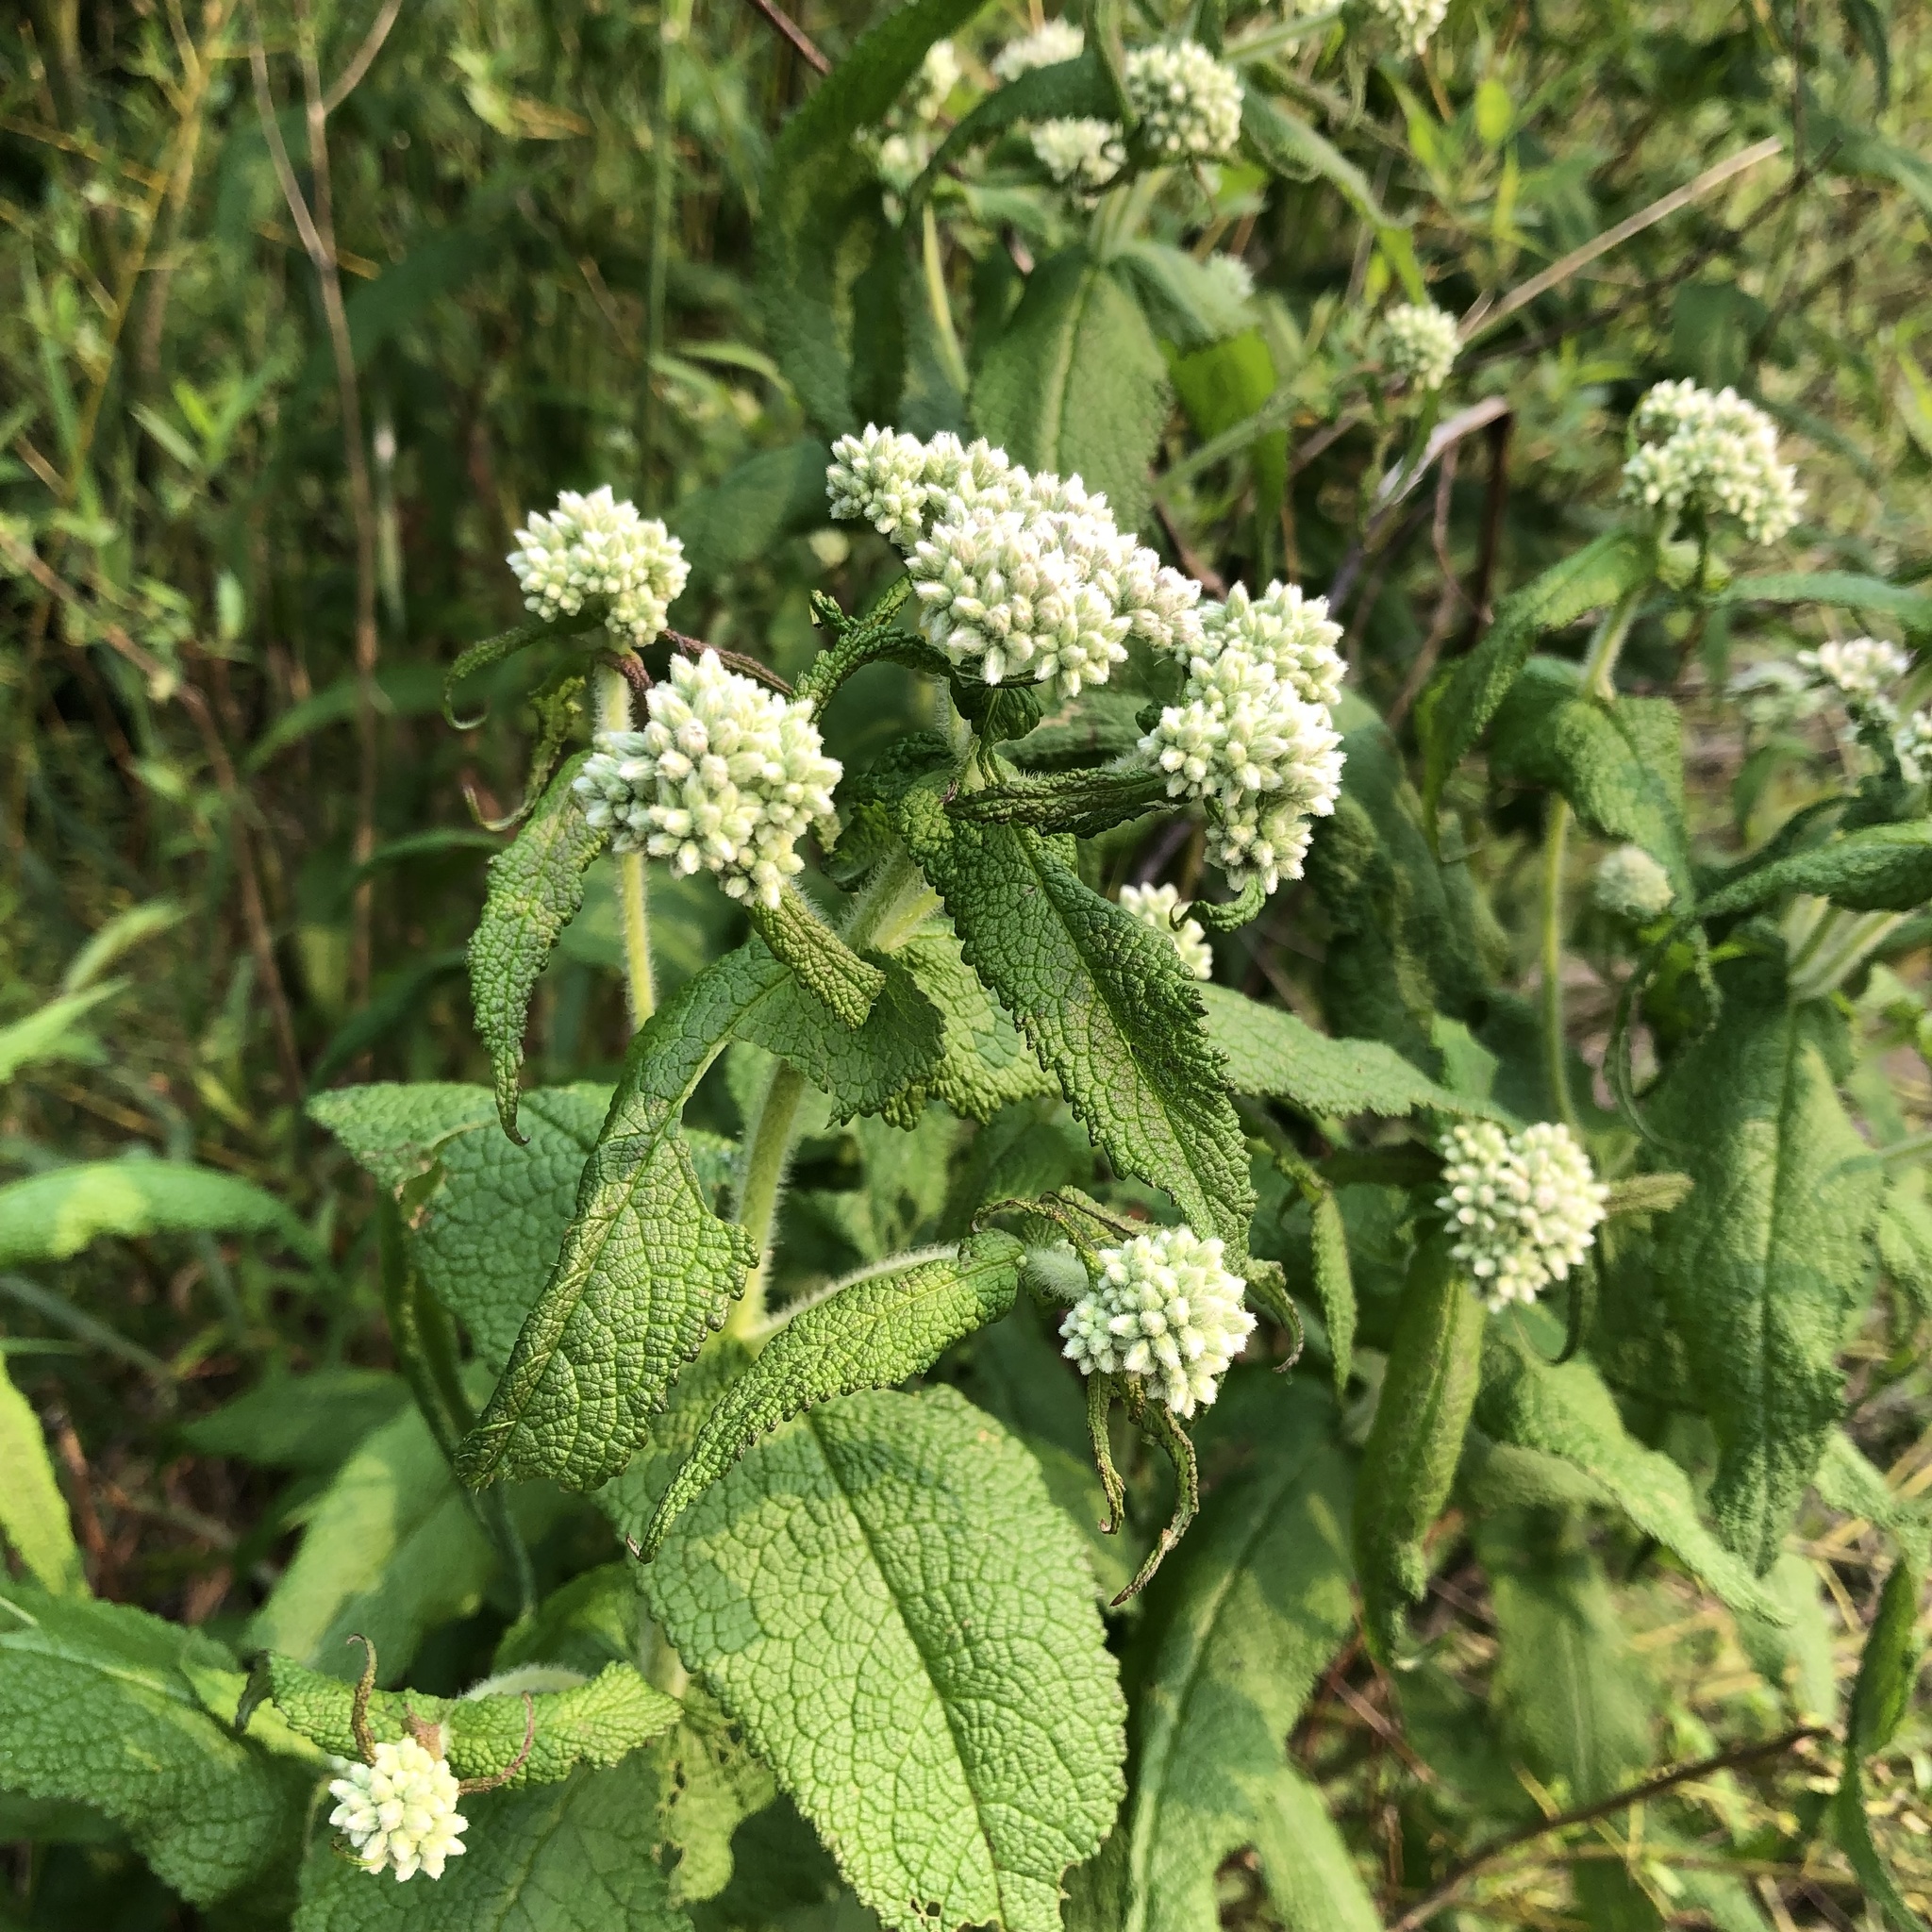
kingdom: Plantae
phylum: Tracheophyta
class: Magnoliopsida
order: Asterales
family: Asteraceae
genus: Eupatorium
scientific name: Eupatorium perfoliatum
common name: Boneset
